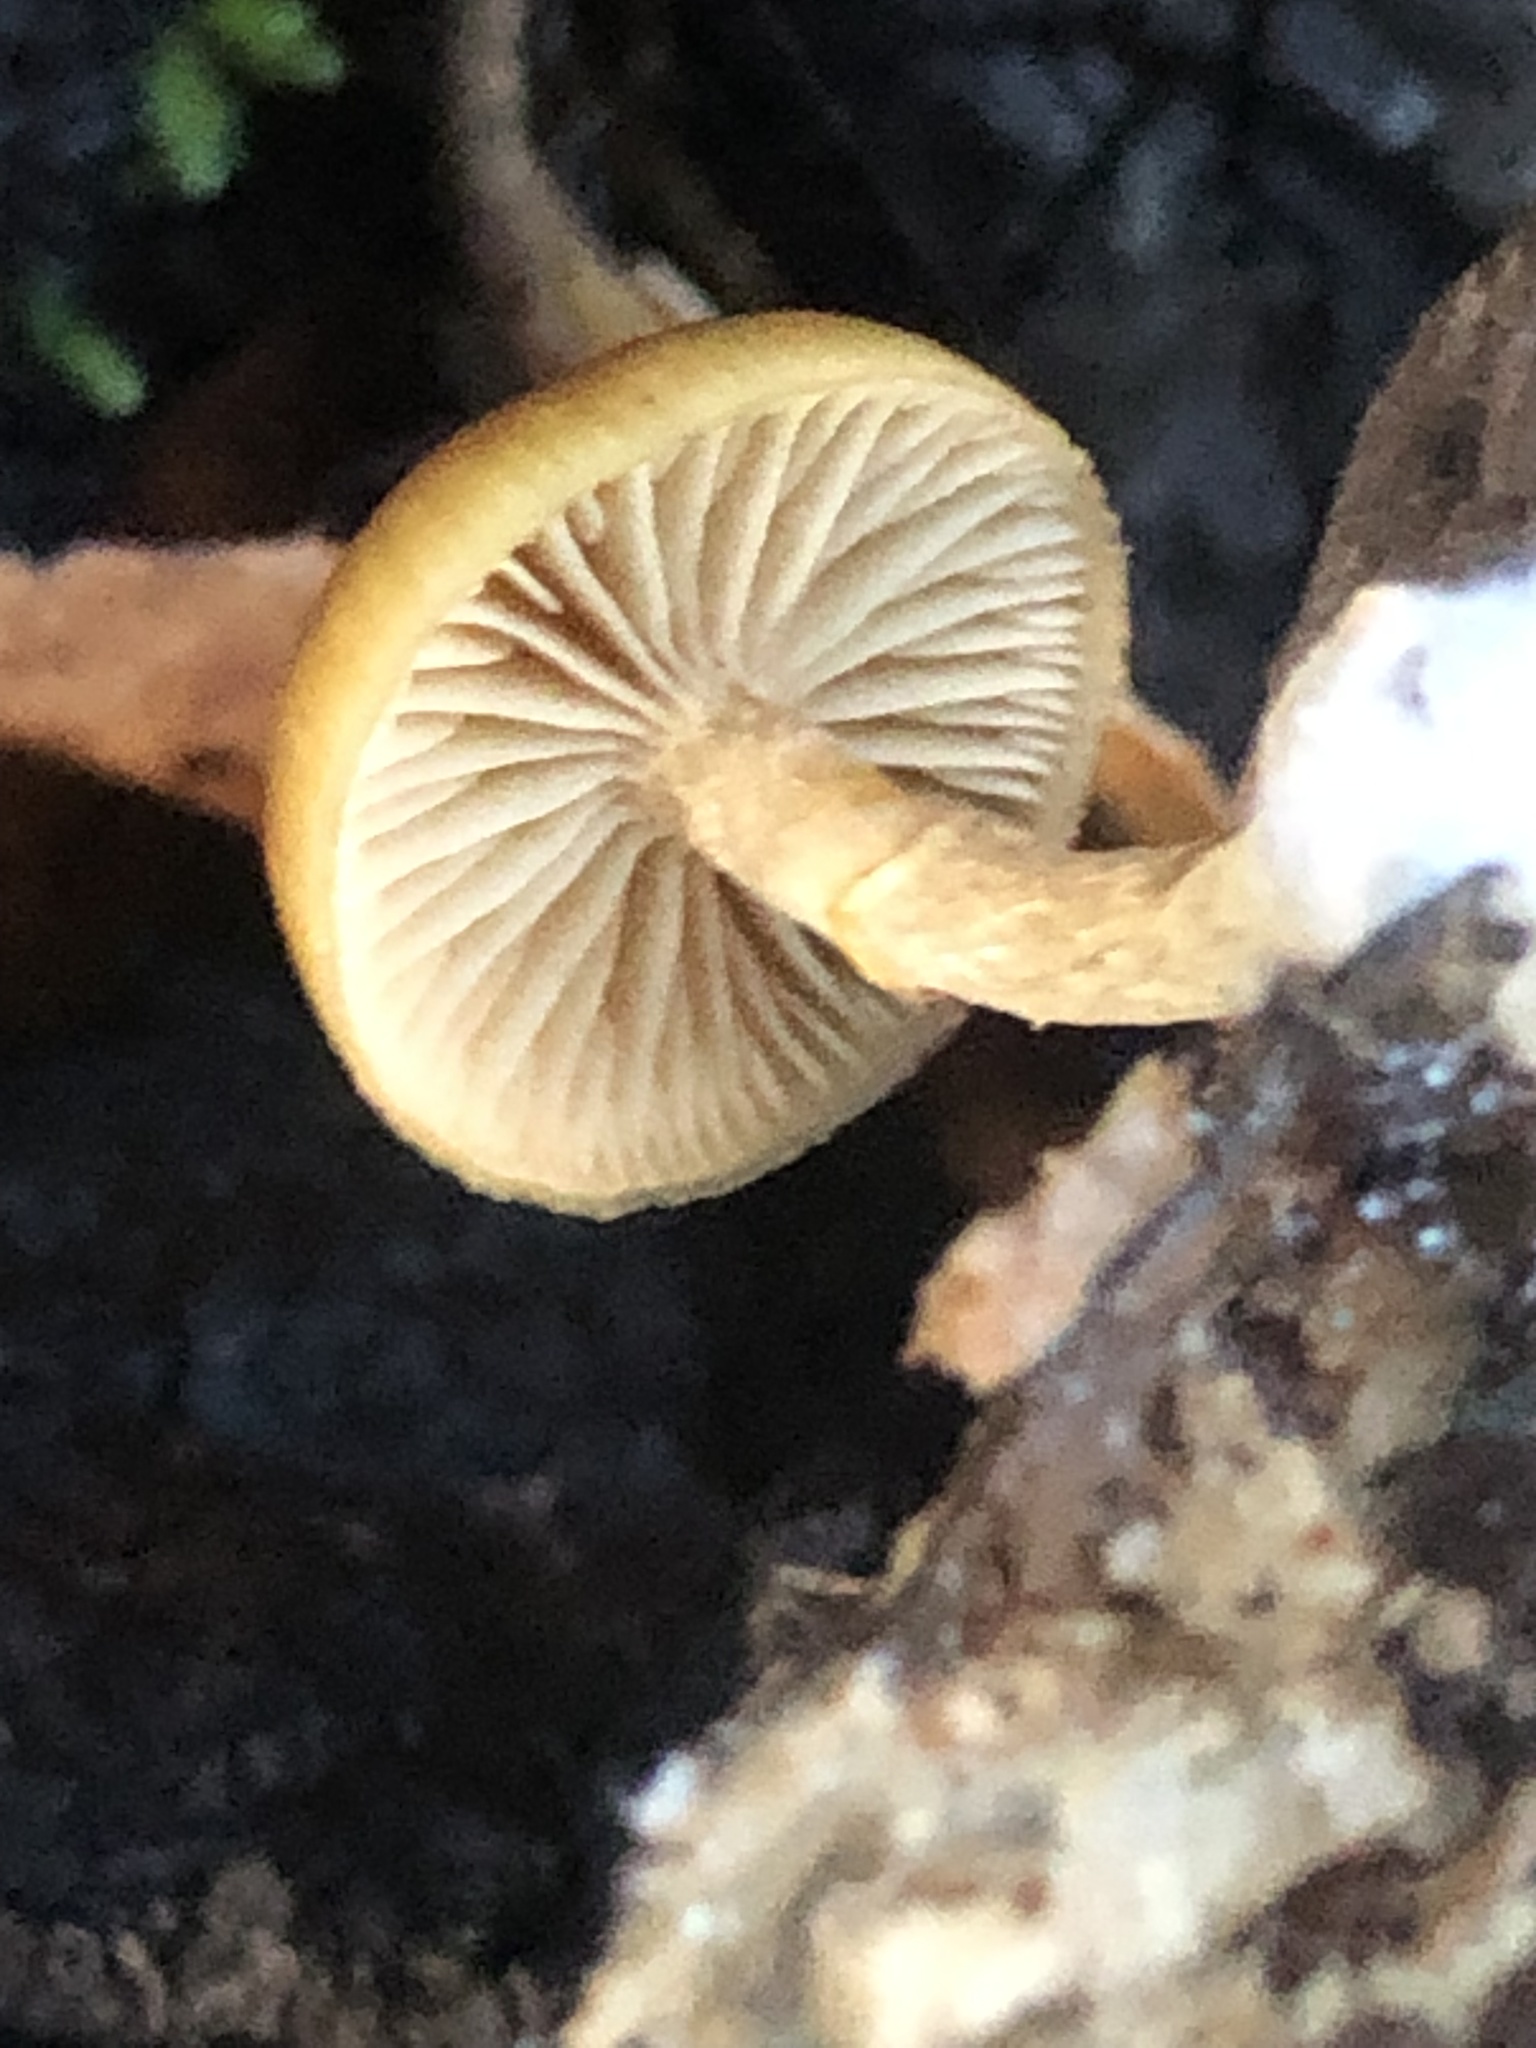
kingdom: Fungi
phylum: Basidiomycota
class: Agaricomycetes
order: Agaricales
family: Hymenogastraceae
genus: Galerina
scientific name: Galerina marginata
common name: Funeral bell
